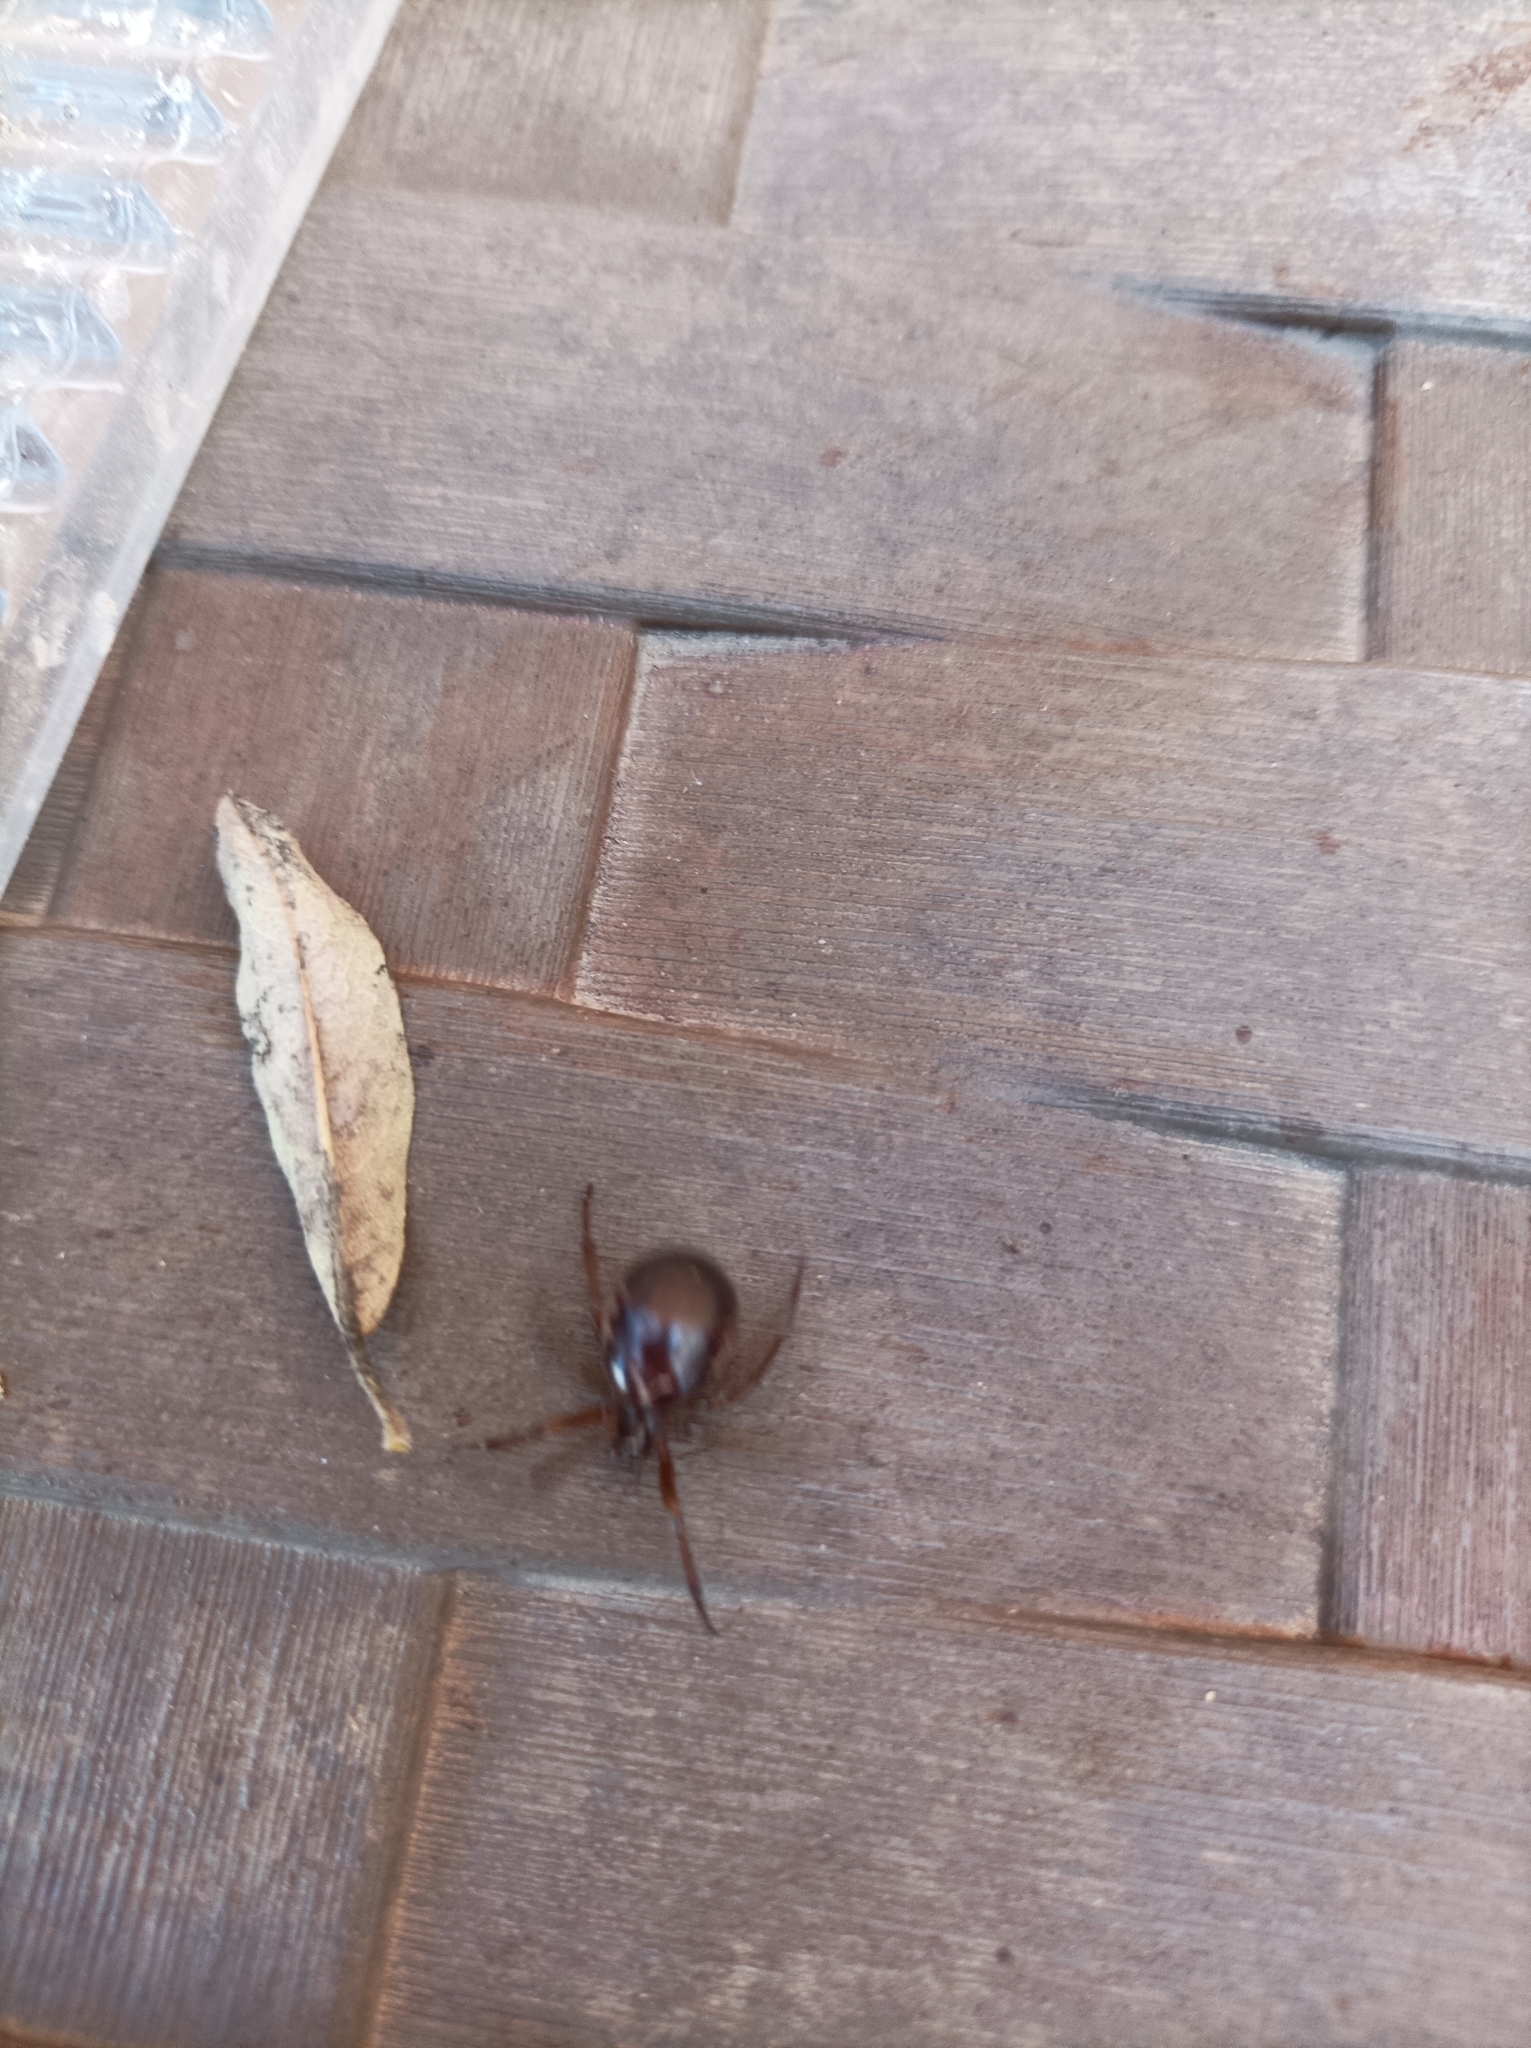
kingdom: Animalia
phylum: Arthropoda
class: Arachnida
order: Araneae
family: Theridiidae
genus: Steatoda
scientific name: Steatoda nobilis
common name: Cobweb weaver
